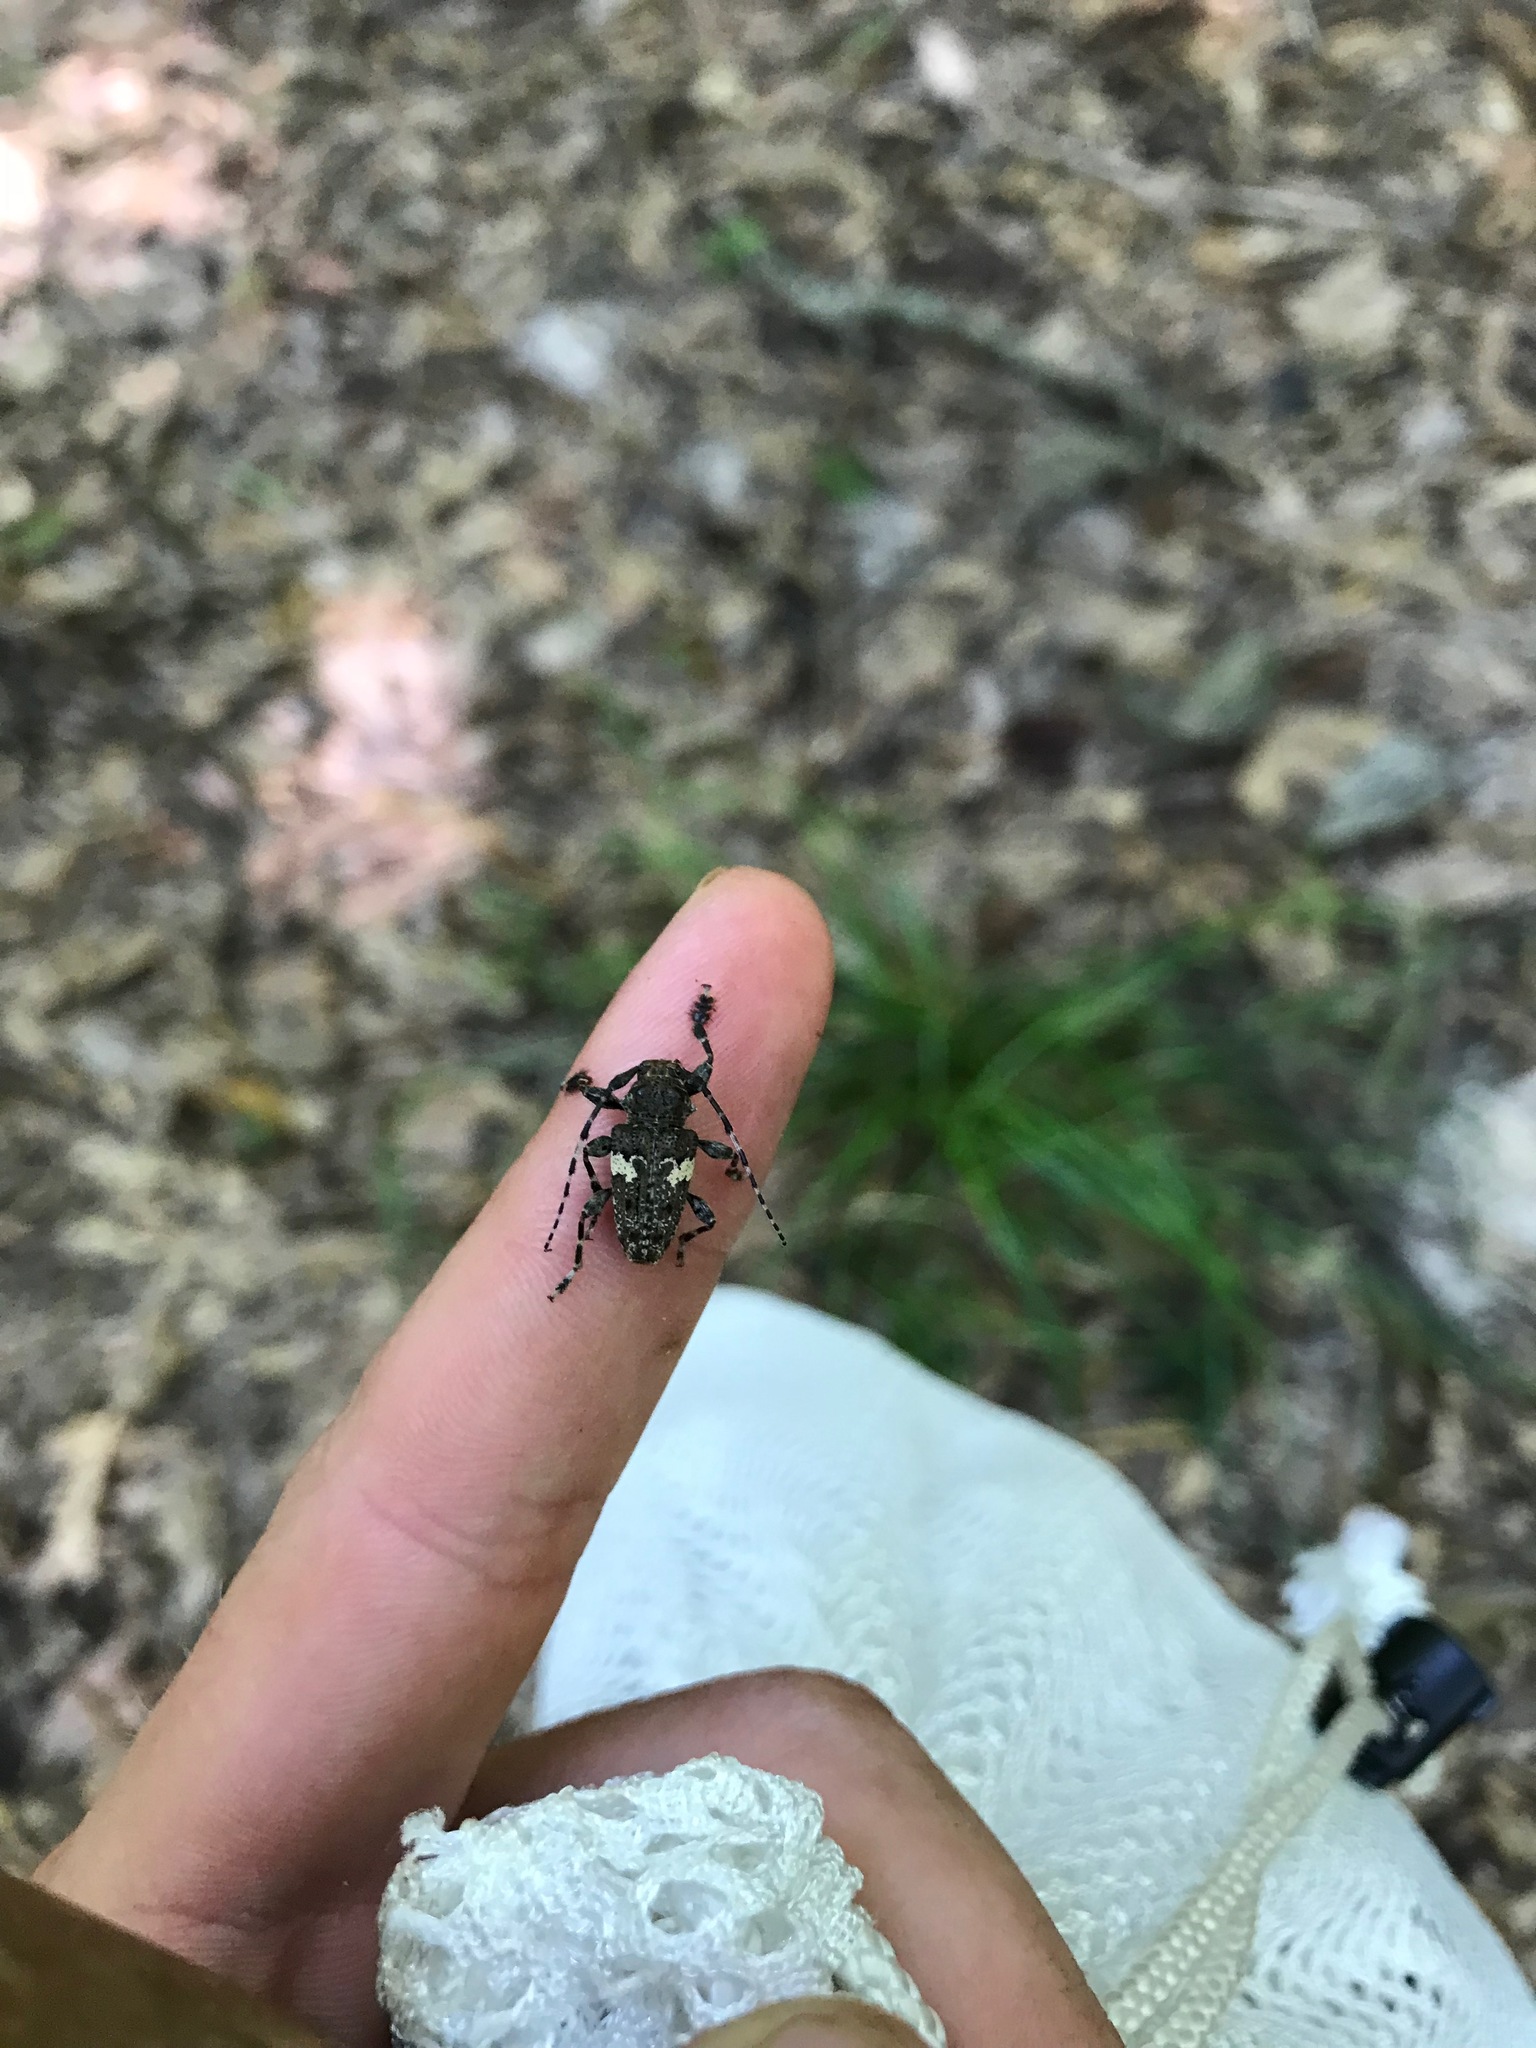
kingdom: Animalia
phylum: Arthropoda
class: Insecta
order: Coleoptera
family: Cerambycidae
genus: Acanthoderes
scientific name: Acanthoderes quadrigibba
